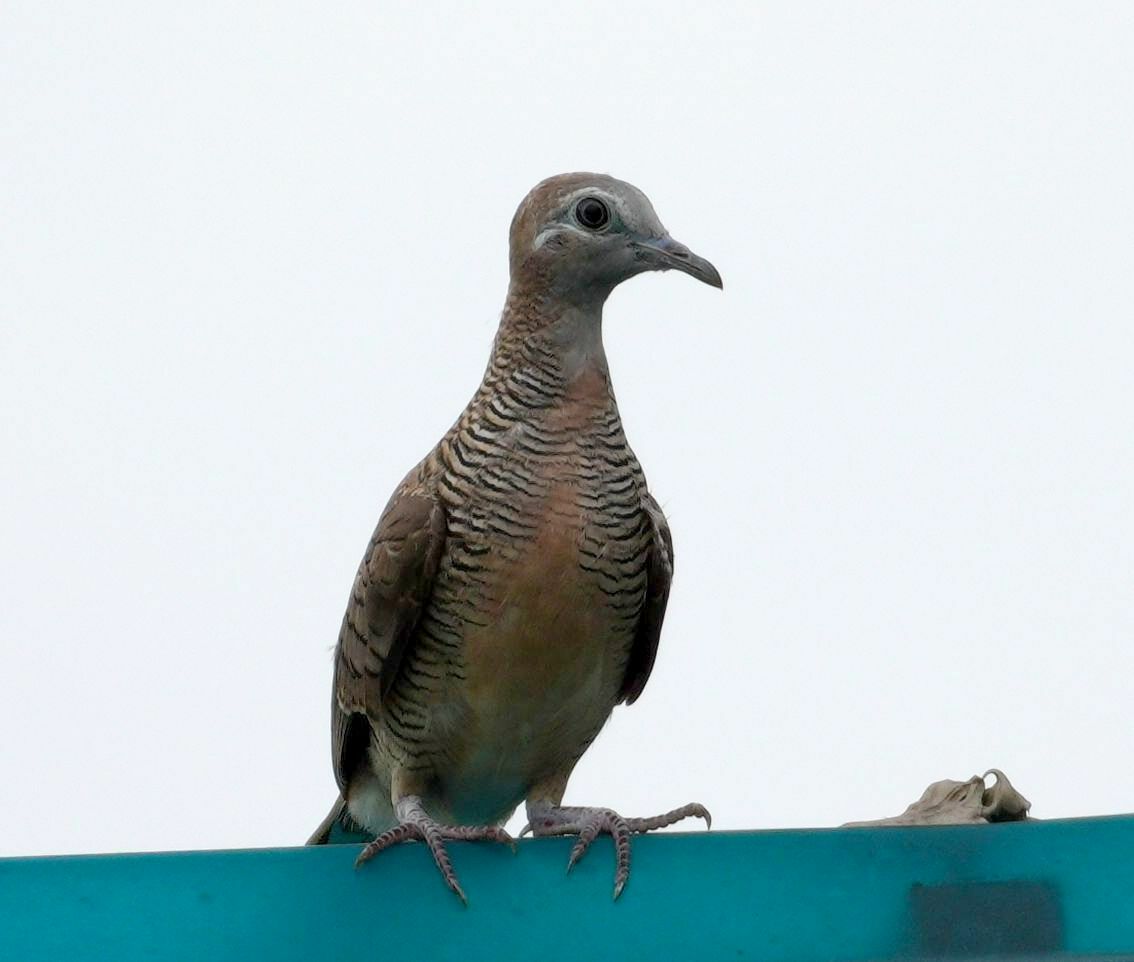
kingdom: Animalia
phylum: Chordata
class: Aves
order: Columbiformes
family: Columbidae
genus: Geopelia
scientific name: Geopelia striata
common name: Zebra dove
